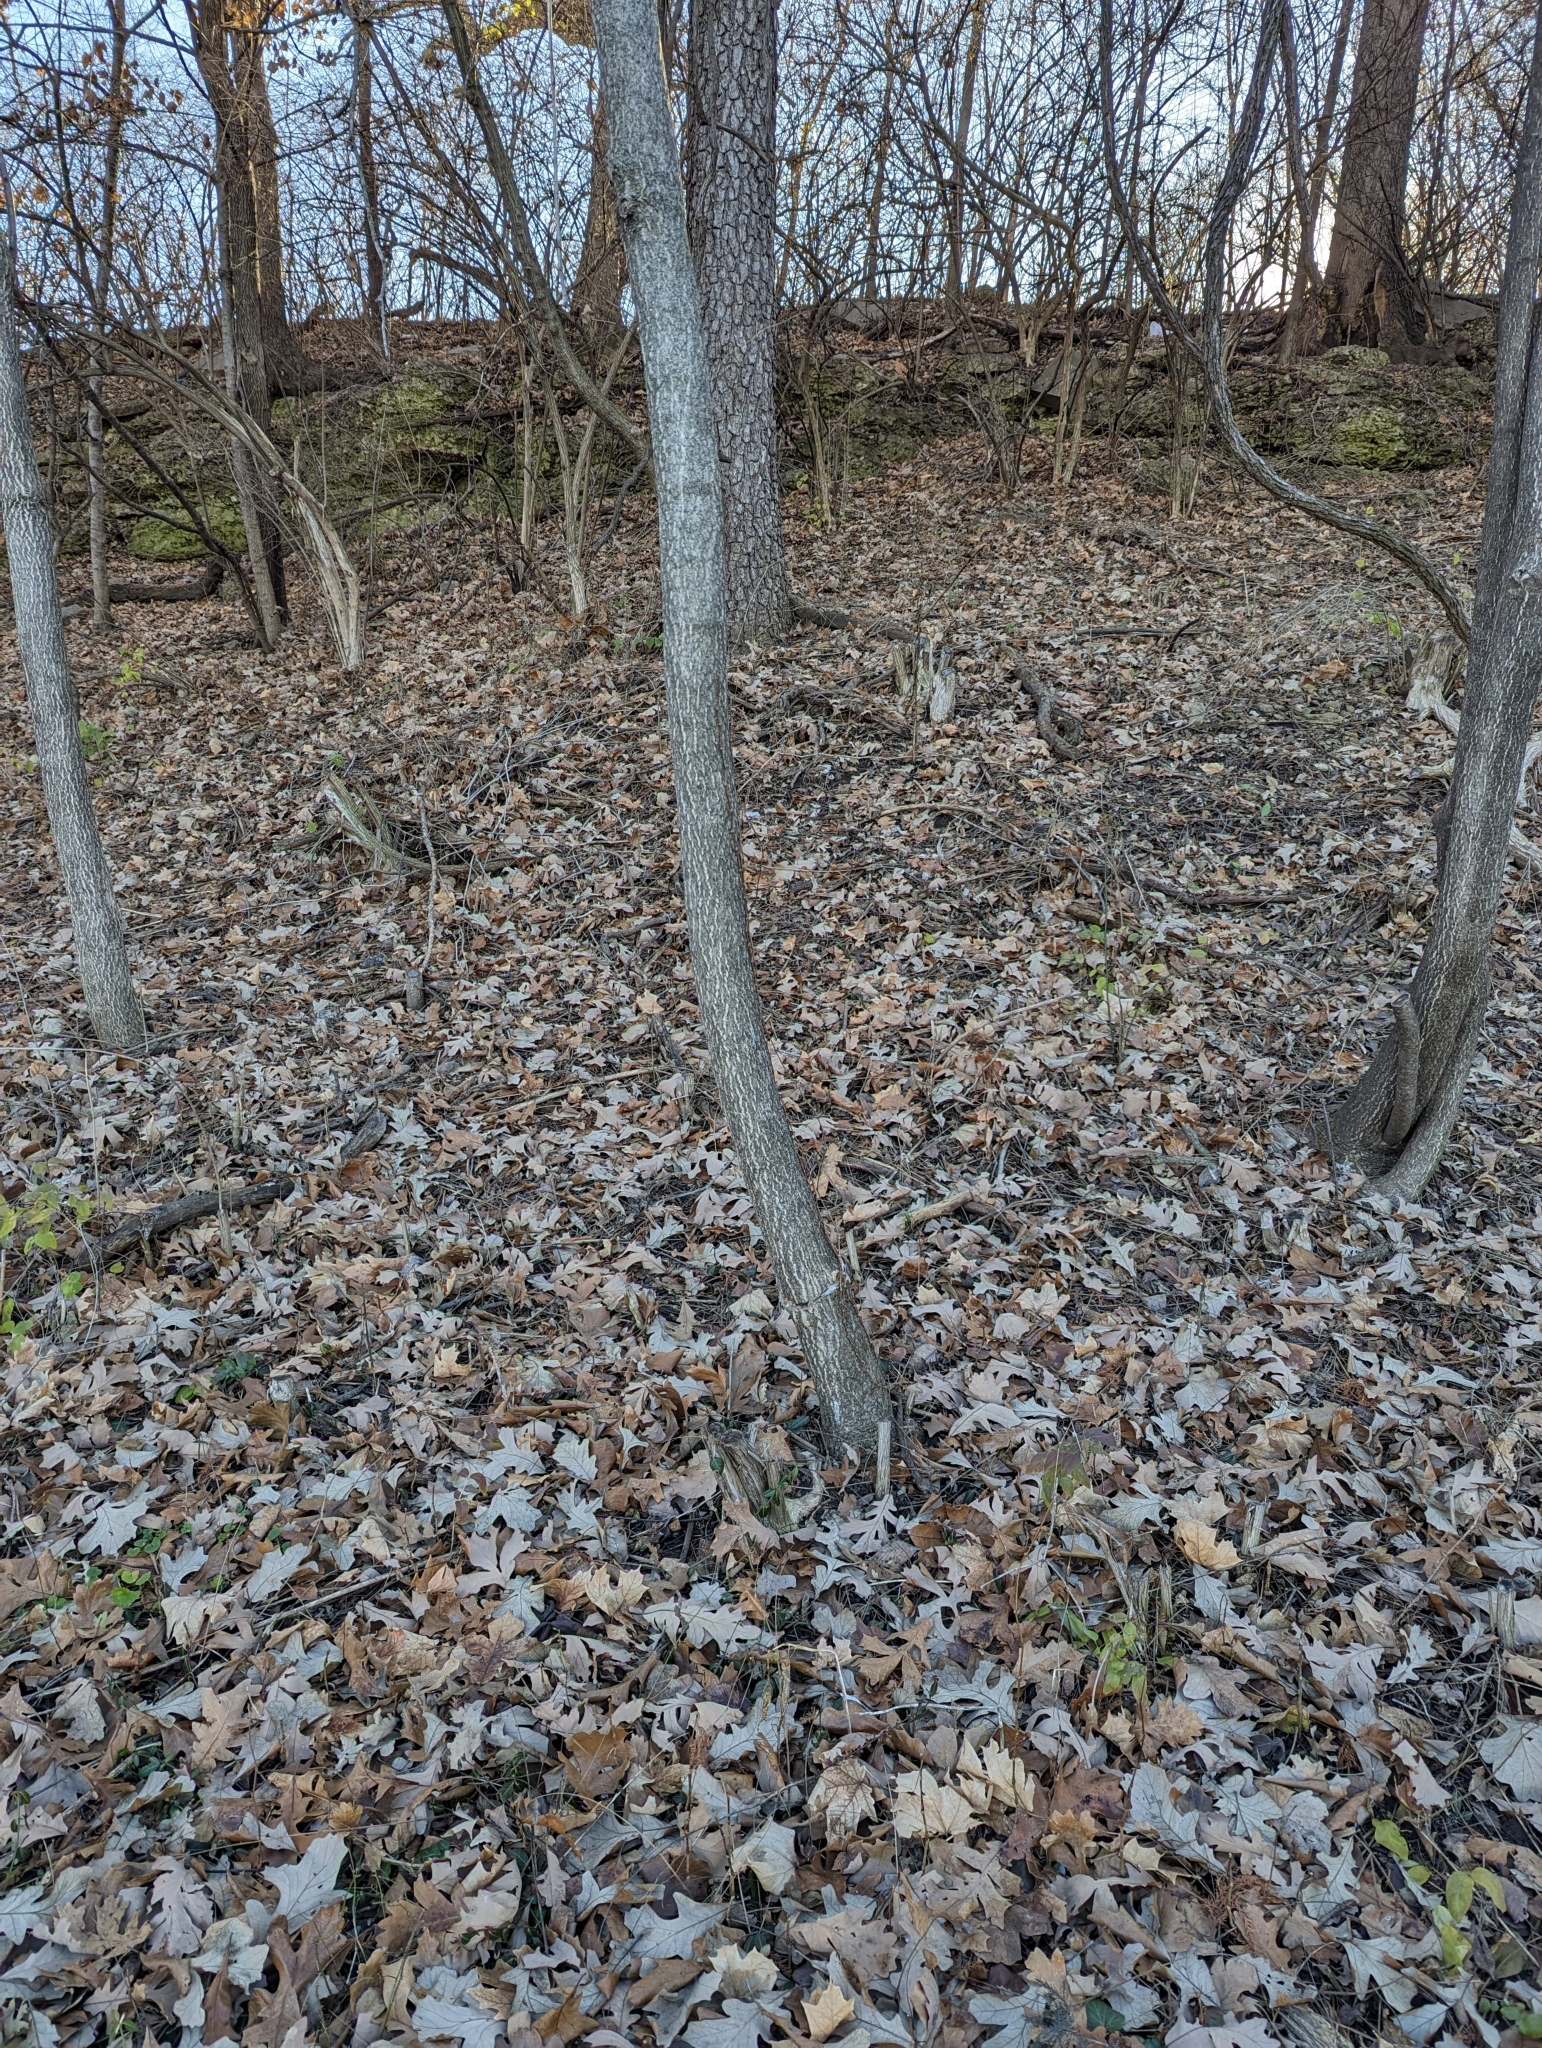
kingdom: Plantae
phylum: Tracheophyta
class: Magnoliopsida
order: Sapindales
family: Simaroubaceae
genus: Ailanthus
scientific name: Ailanthus altissima
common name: Tree-of-heaven
